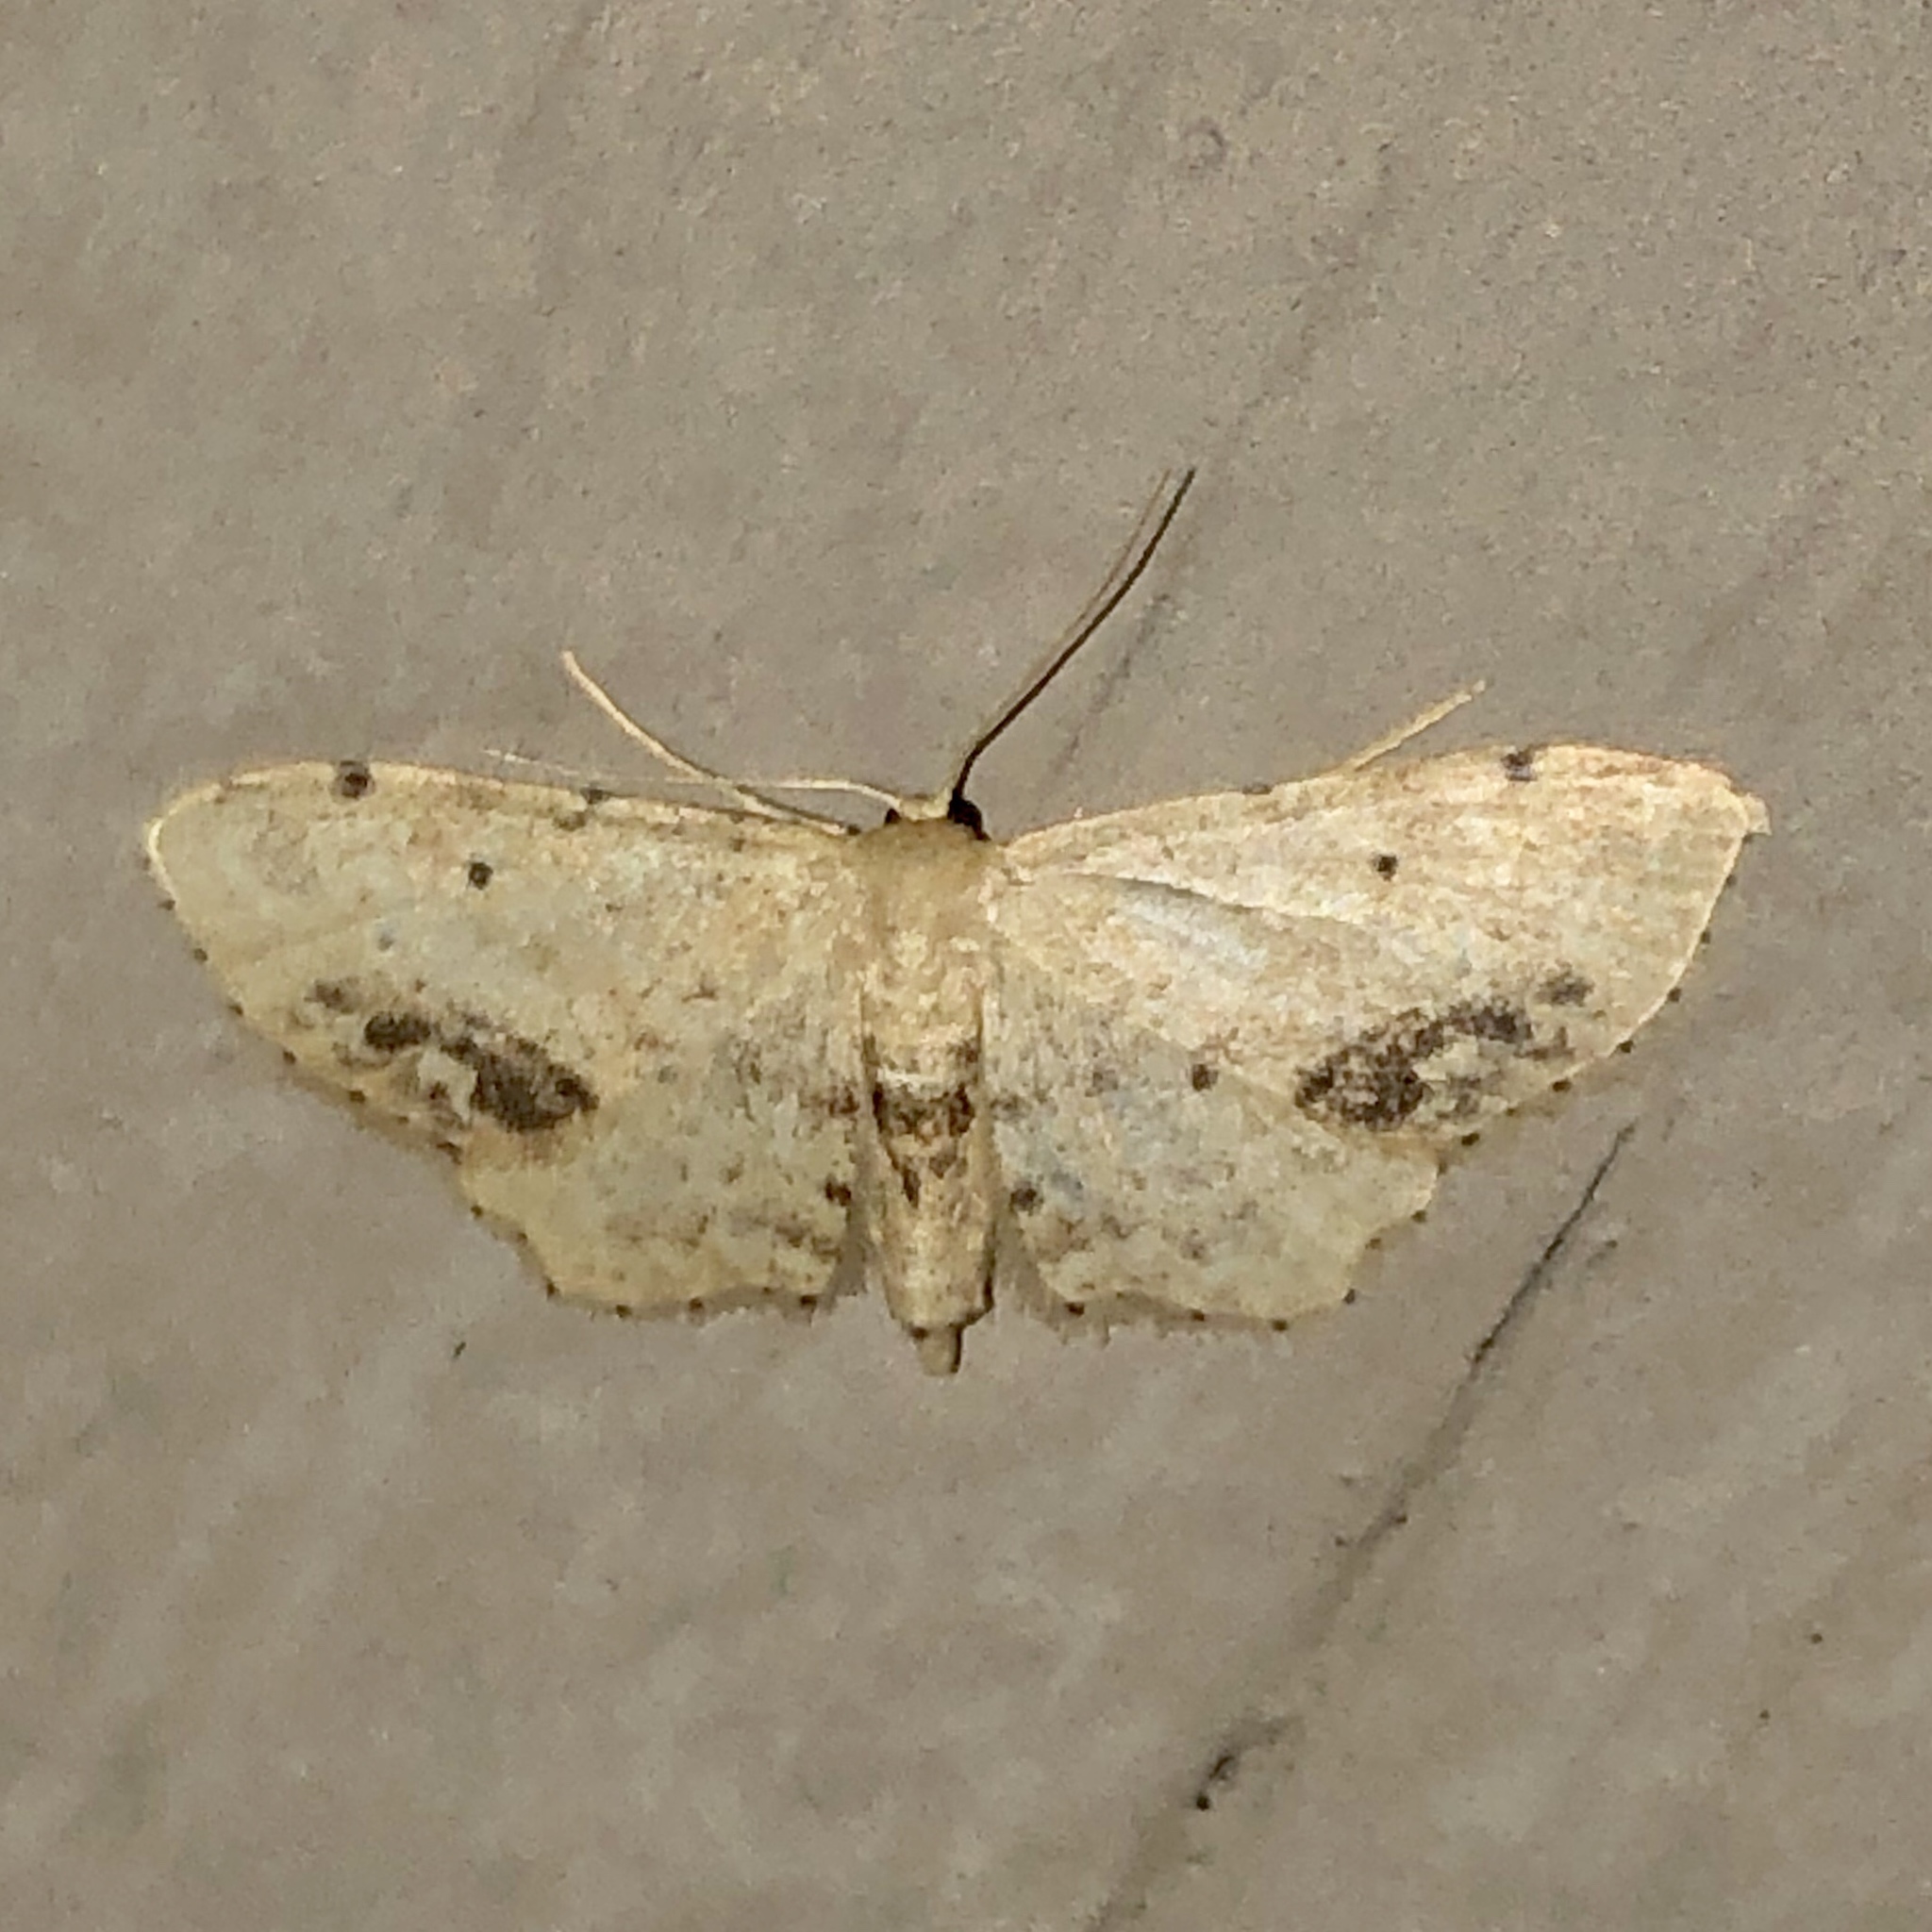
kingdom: Animalia
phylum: Arthropoda
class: Insecta
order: Lepidoptera
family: Geometridae
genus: Idaea
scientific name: Idaea dimidiata
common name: Single-dotted wave
